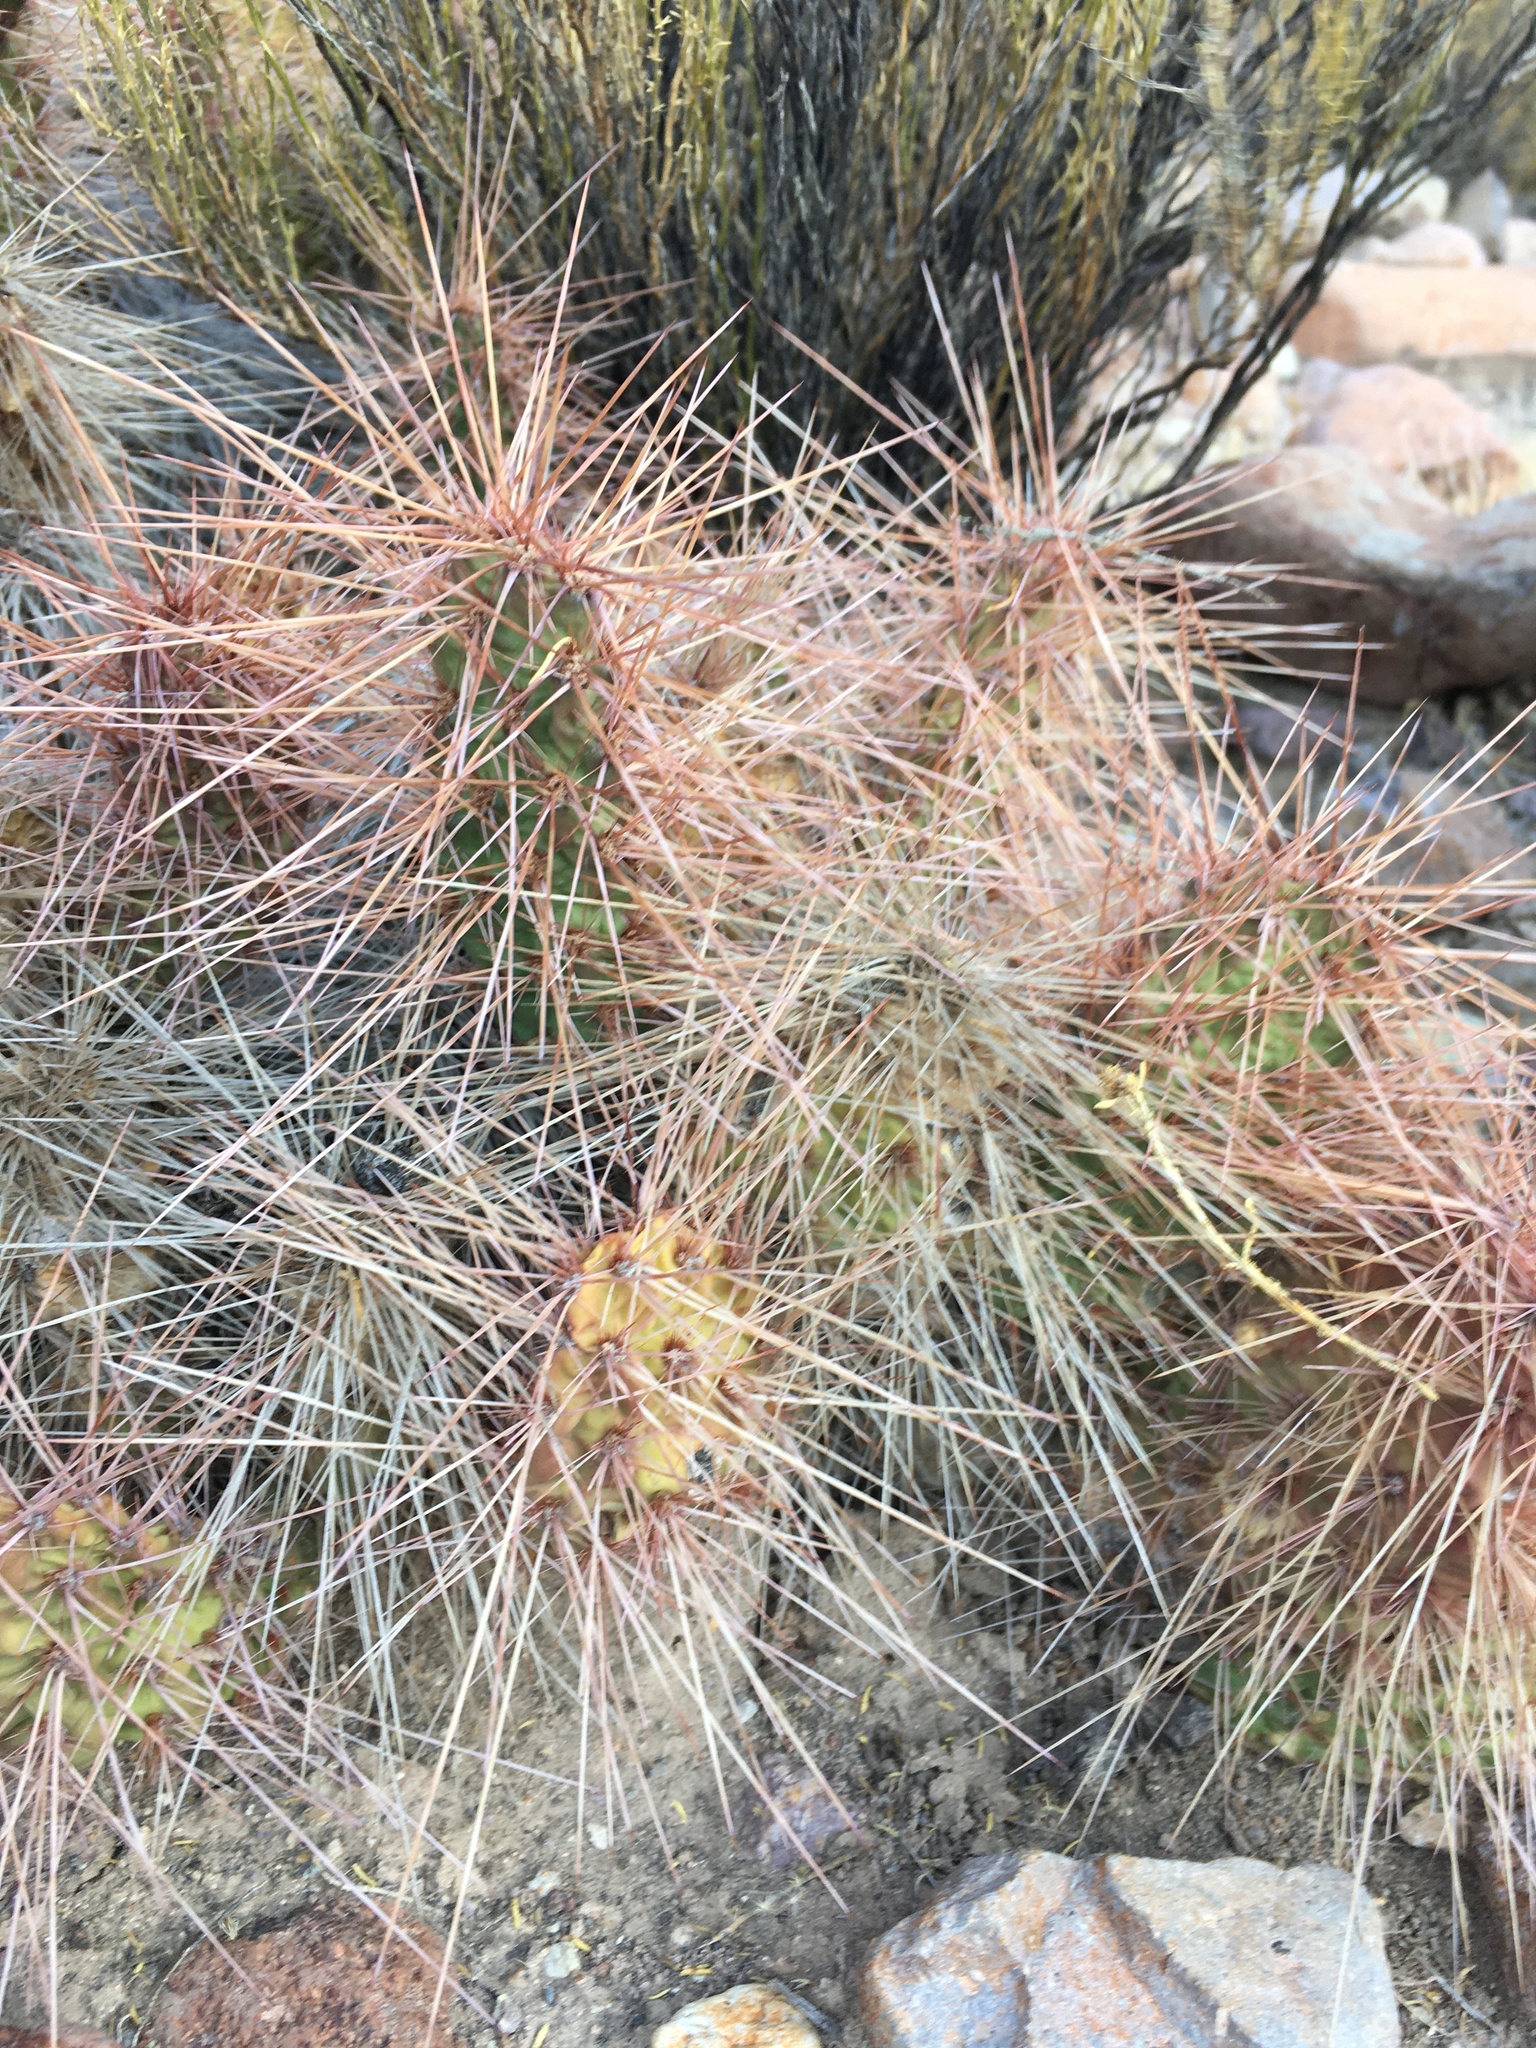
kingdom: Plantae
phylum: Tracheophyta
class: Magnoliopsida
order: Caryophyllales
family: Cactaceae
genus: Airampoa
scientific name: Airampoa soehrensii
